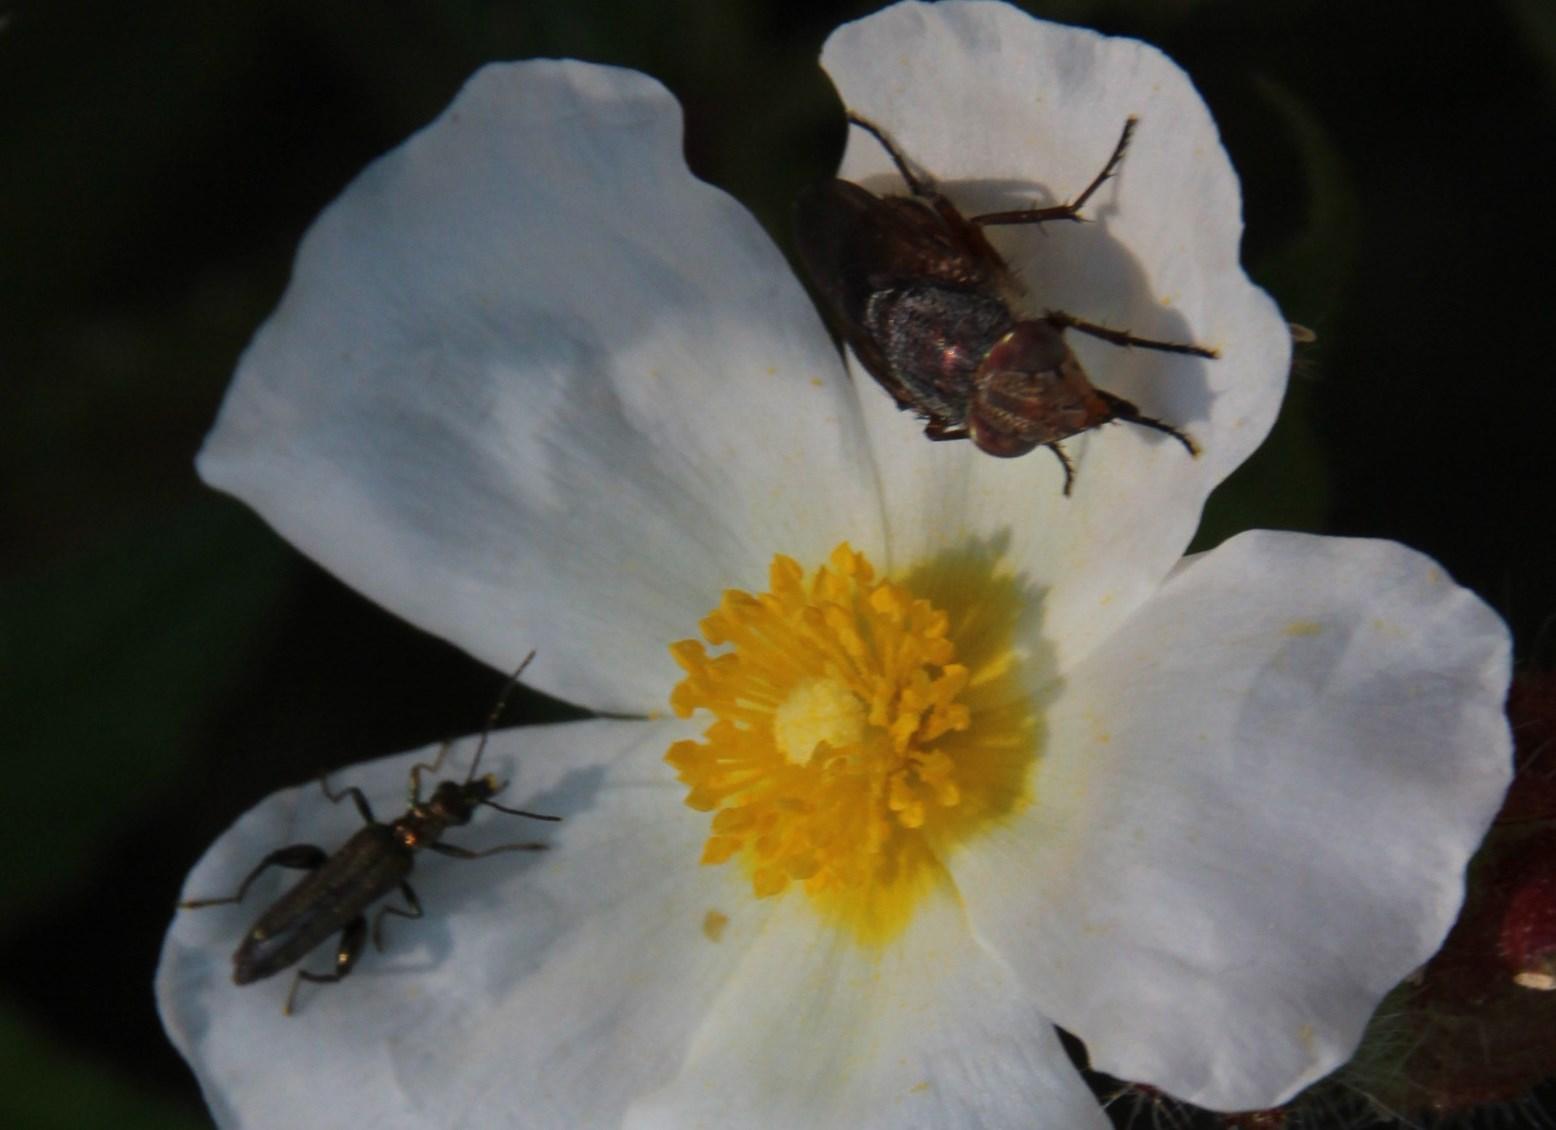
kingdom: Animalia
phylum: Arthropoda
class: Insecta
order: Diptera
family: Calliphoridae
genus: Rhyncomya
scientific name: Rhyncomya columbina
